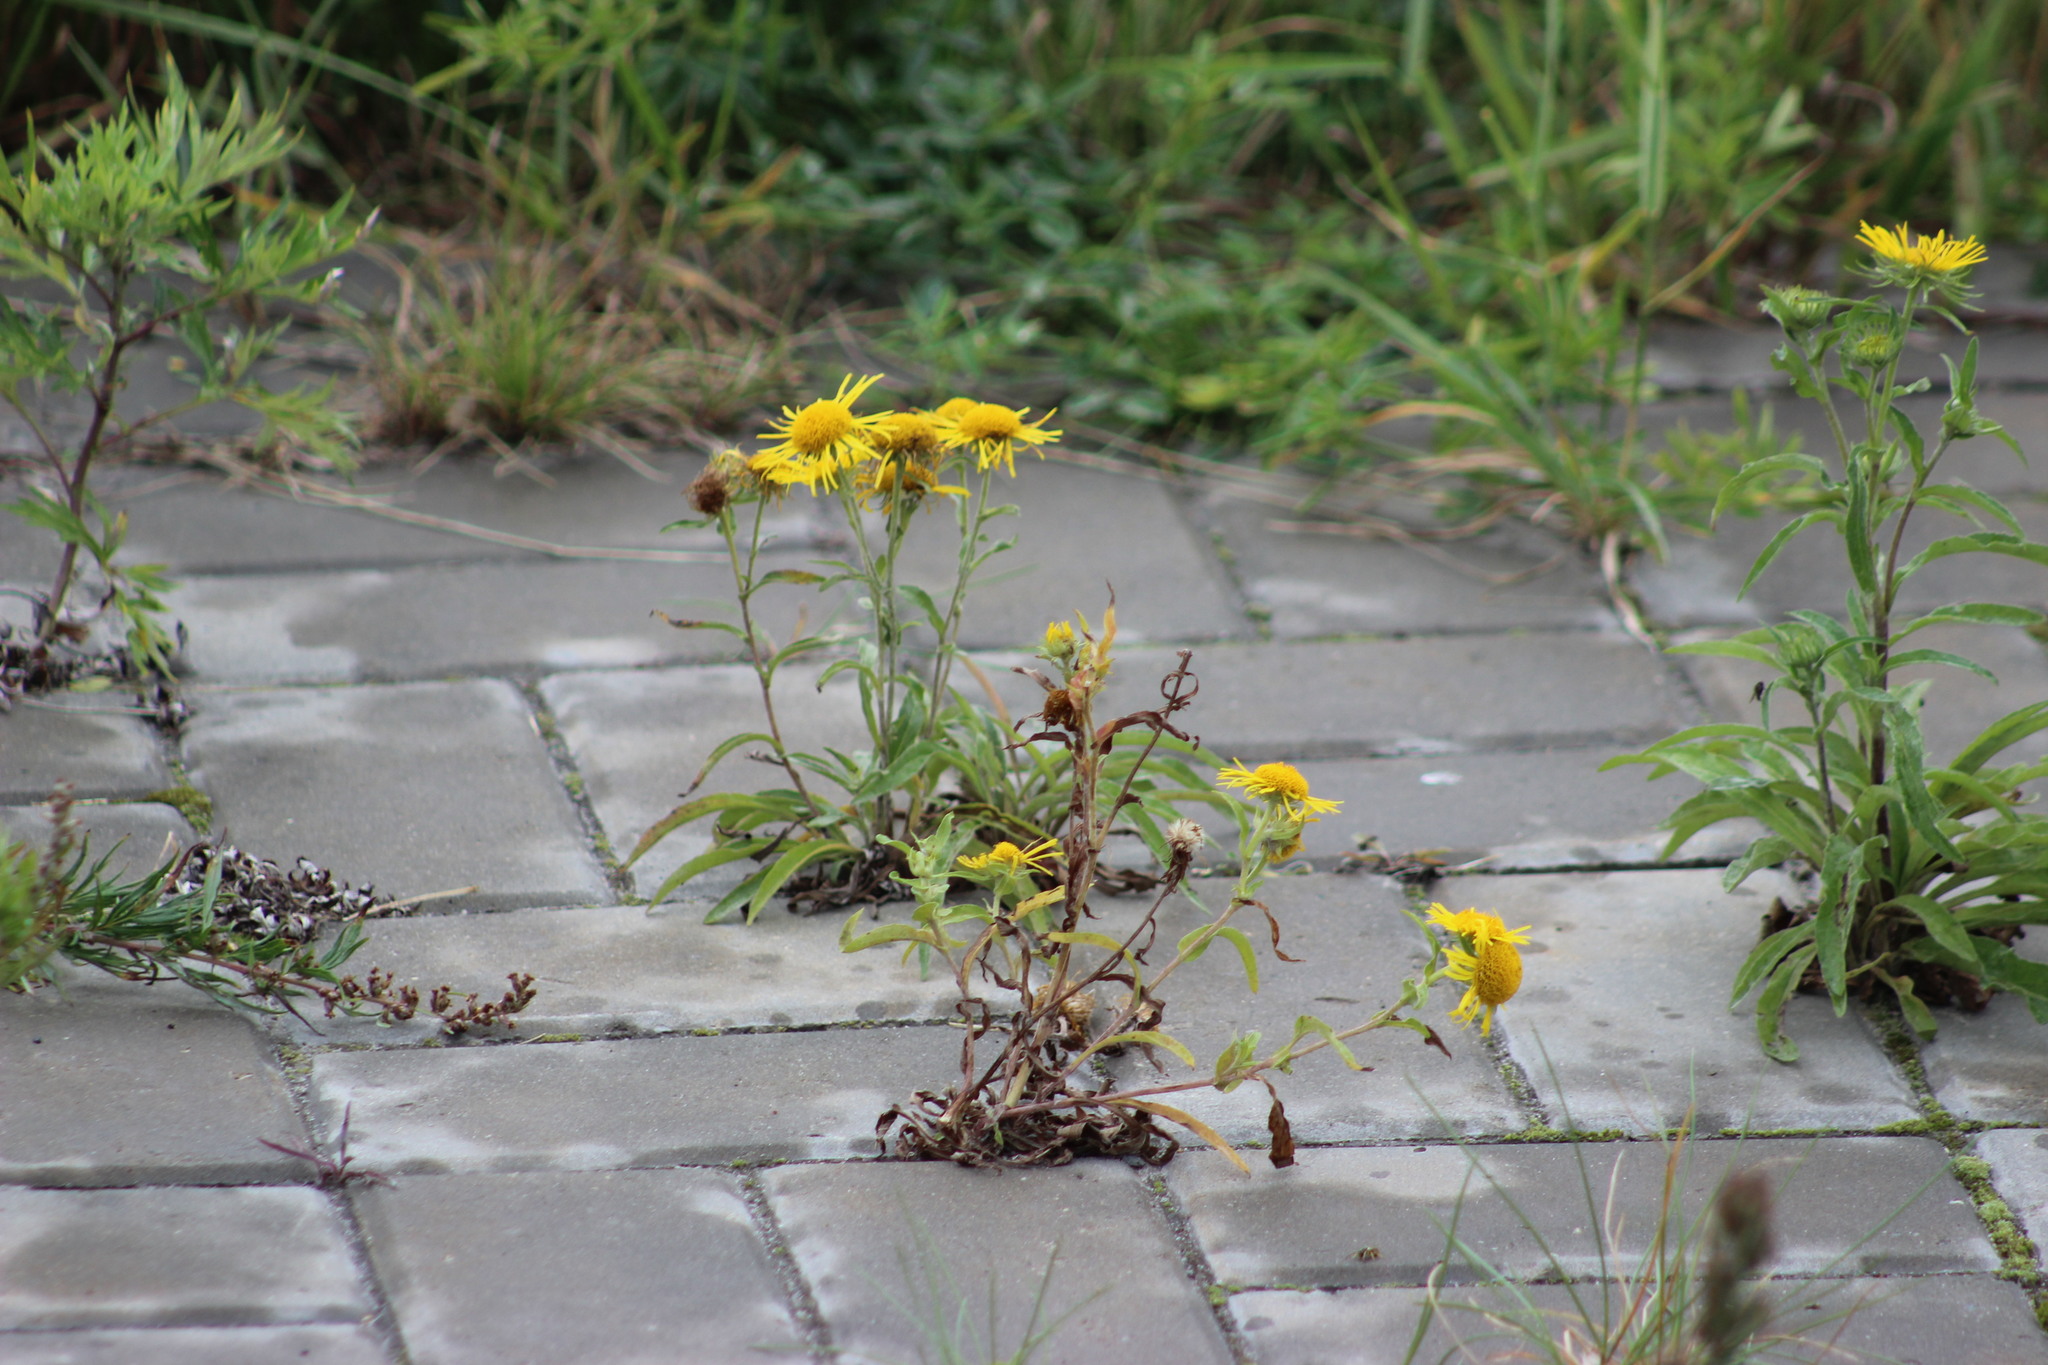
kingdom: Plantae
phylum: Tracheophyta
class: Magnoliopsida
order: Asterales
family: Asteraceae
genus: Pentanema
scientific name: Pentanema britannicum
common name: British elecampane
